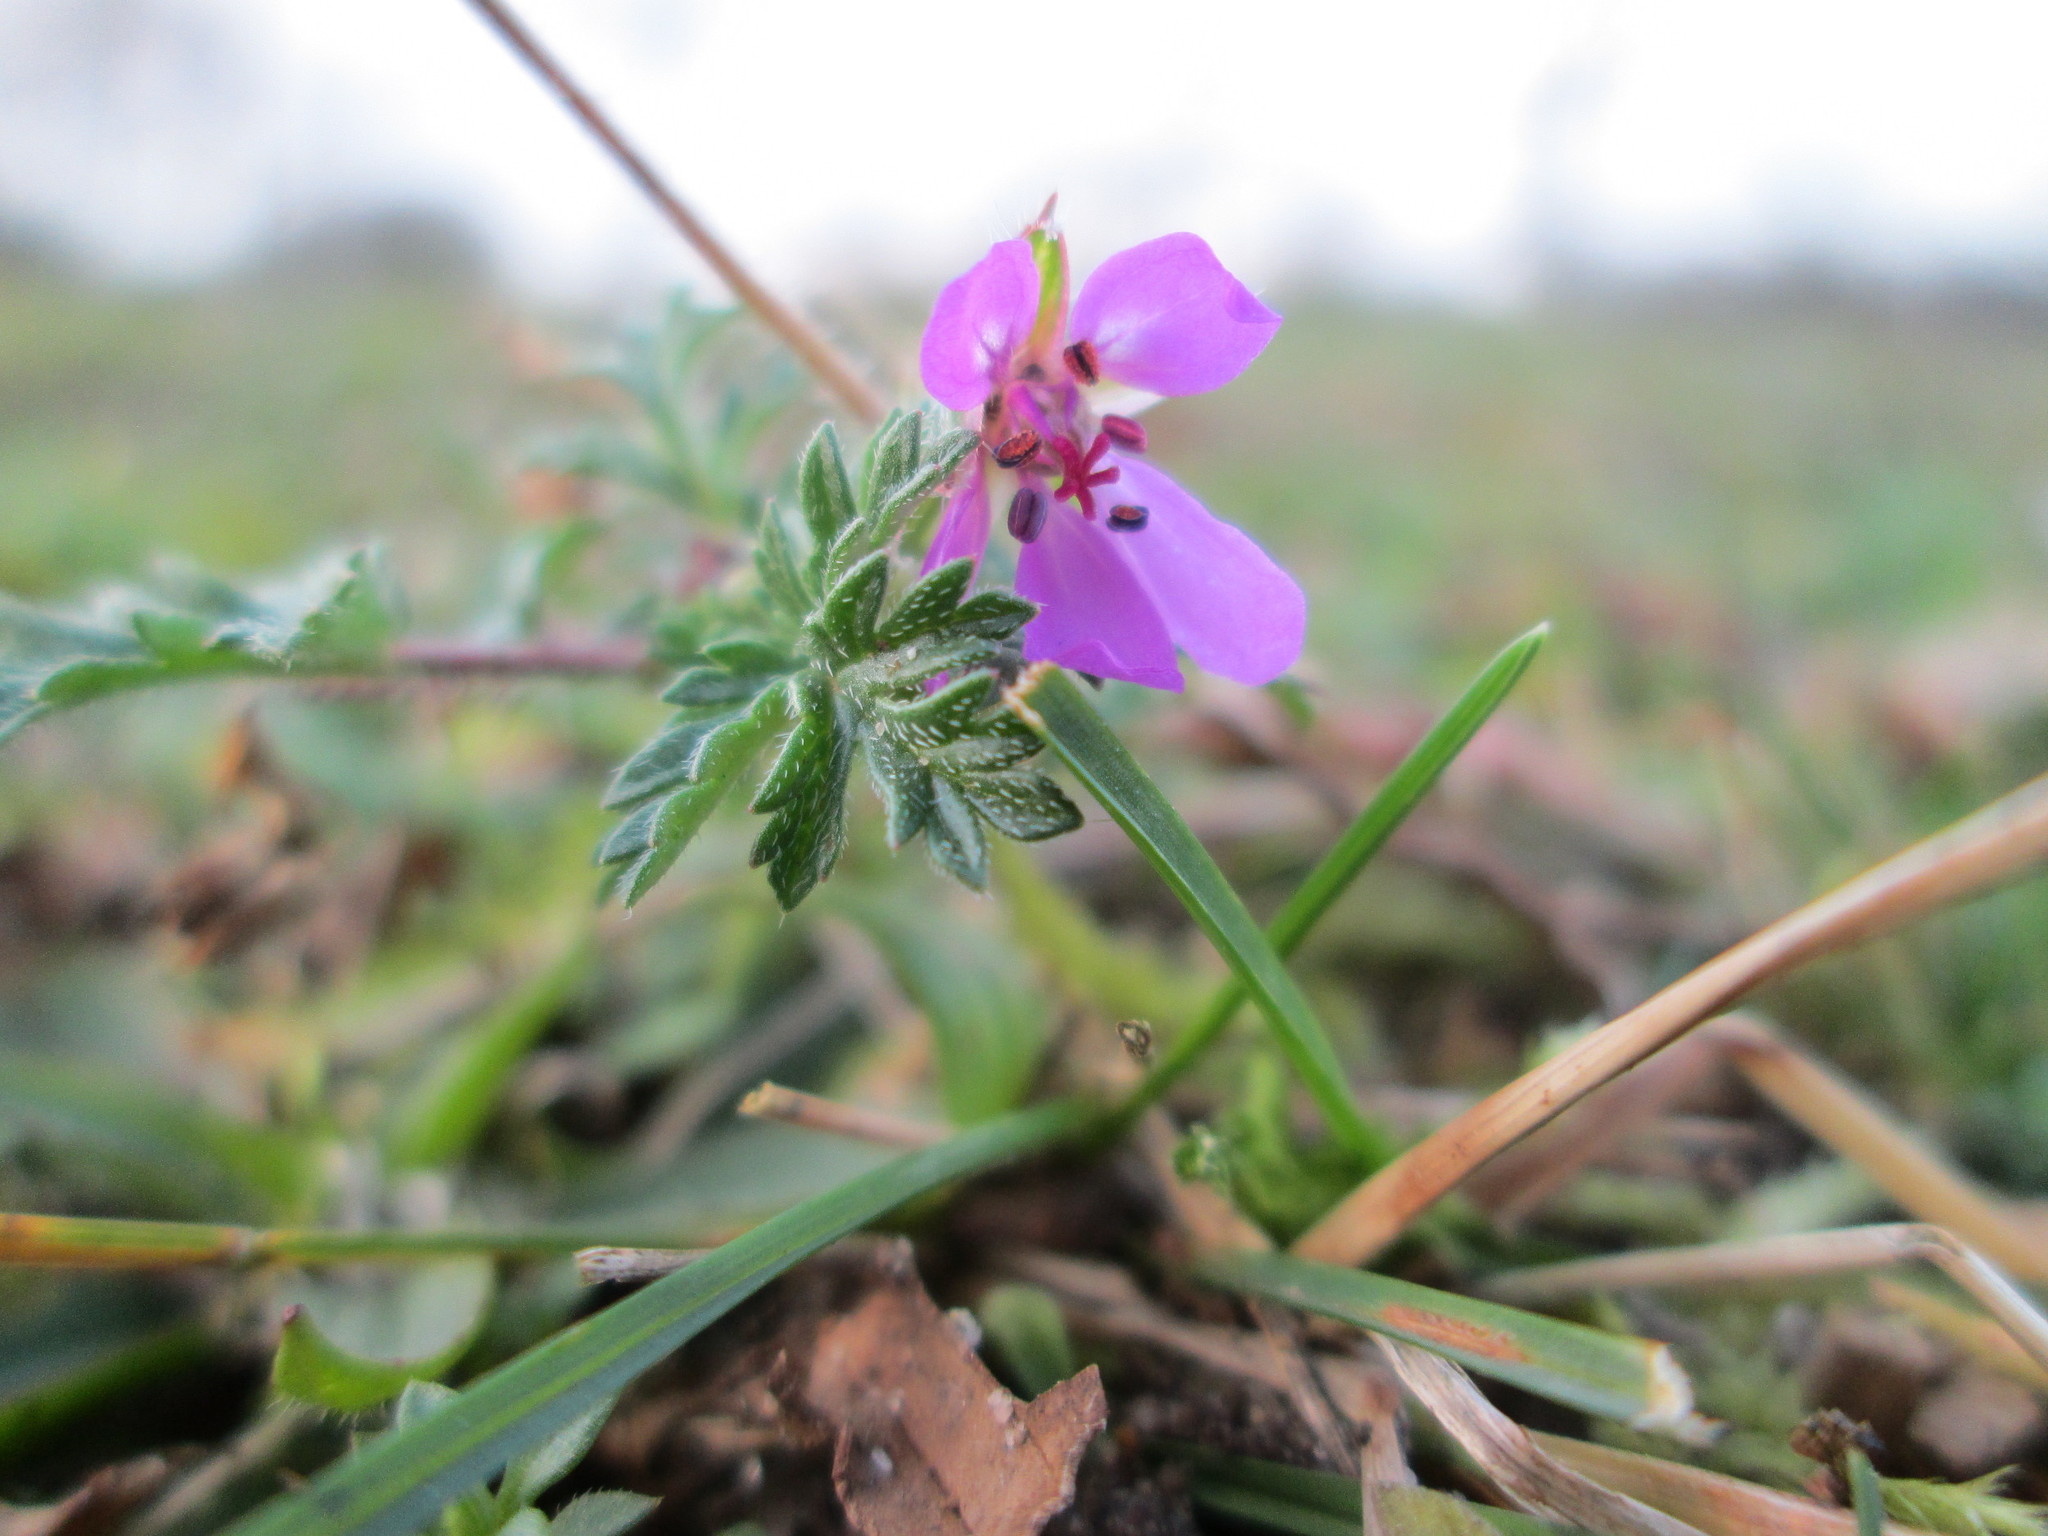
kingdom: Plantae
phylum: Tracheophyta
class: Magnoliopsida
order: Geraniales
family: Geraniaceae
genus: Erodium
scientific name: Erodium cicutarium
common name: Common stork's-bill
